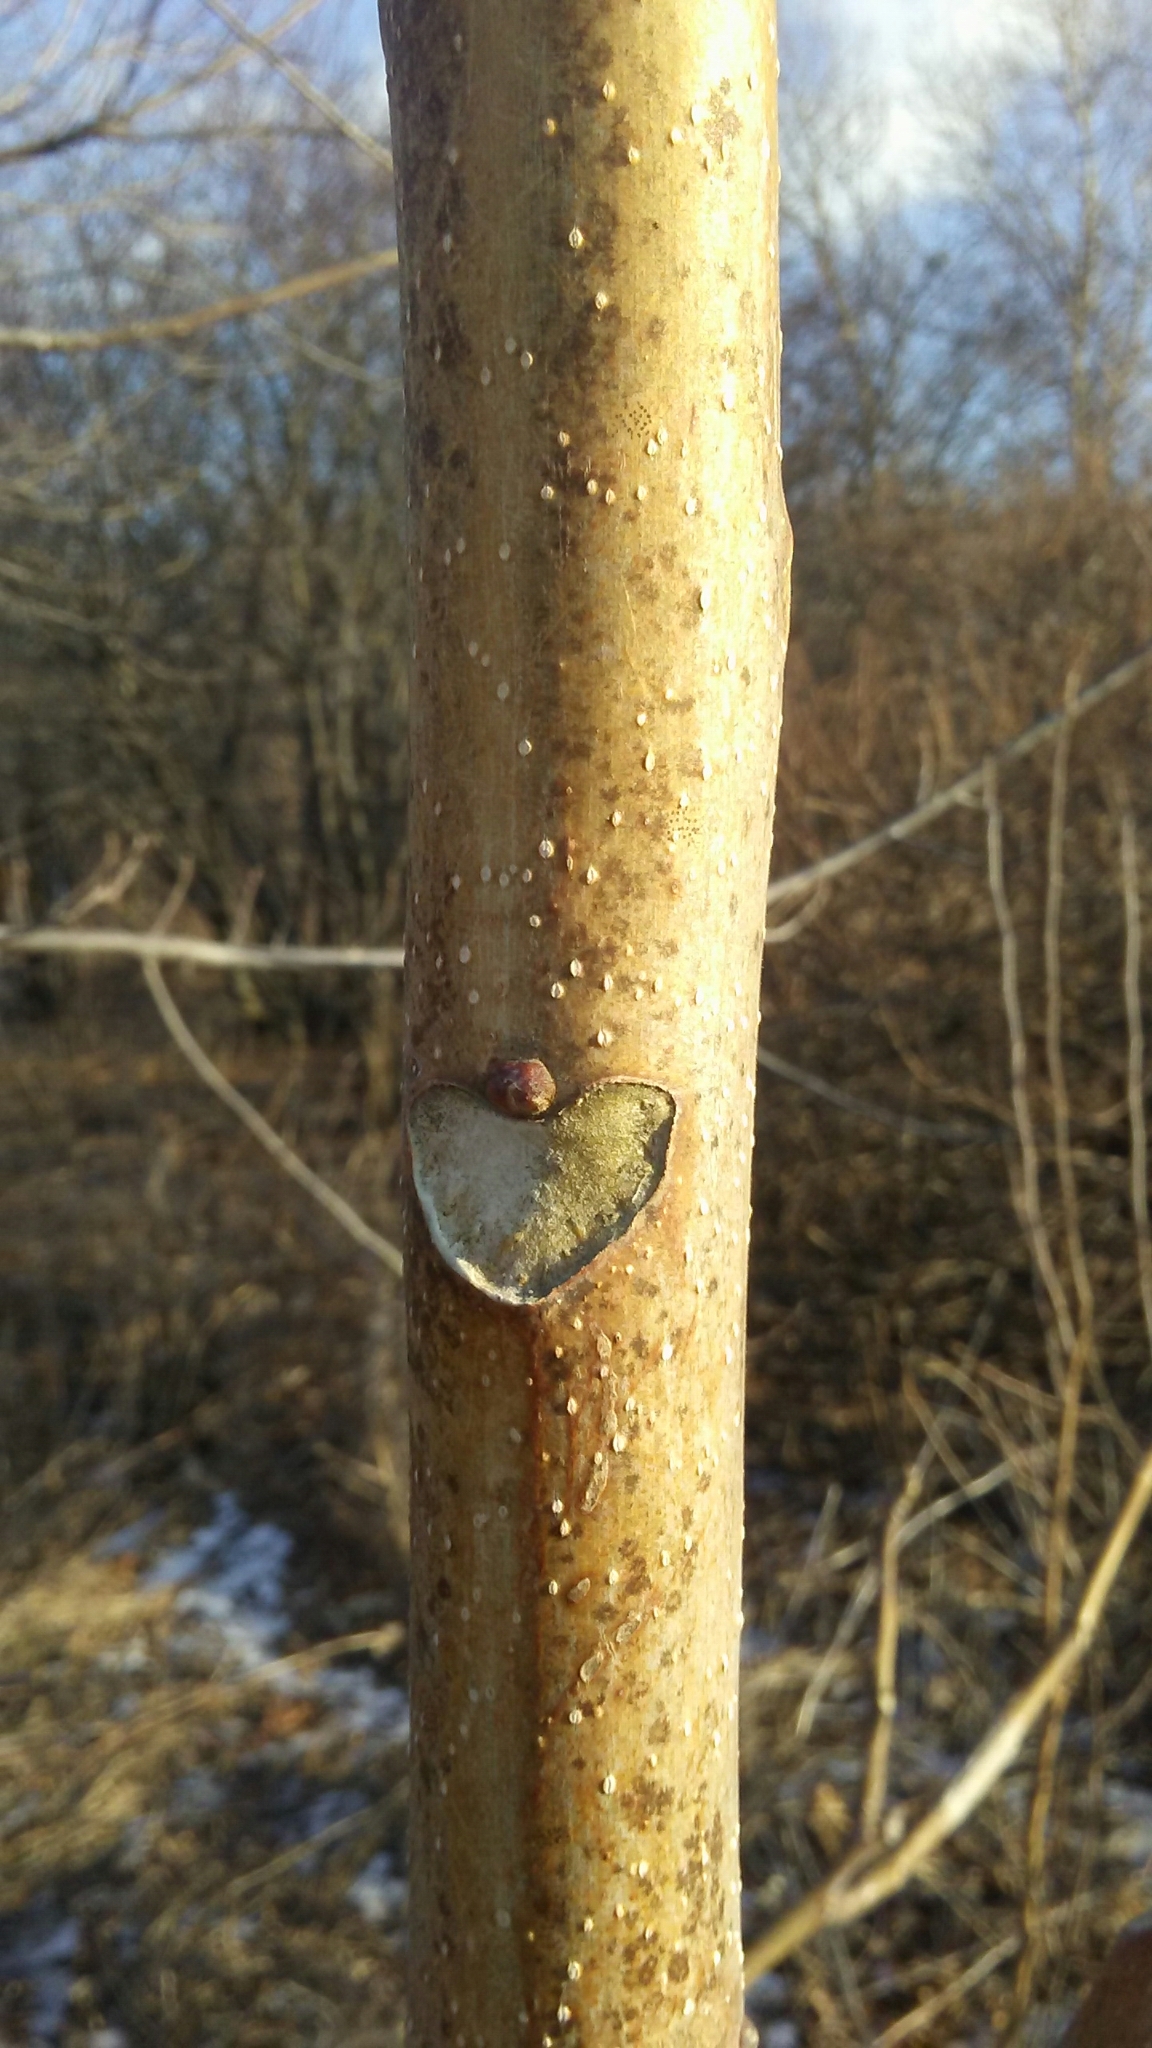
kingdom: Plantae
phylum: Tracheophyta
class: Magnoliopsida
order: Sapindales
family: Simaroubaceae
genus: Ailanthus
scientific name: Ailanthus altissima
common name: Tree-of-heaven
